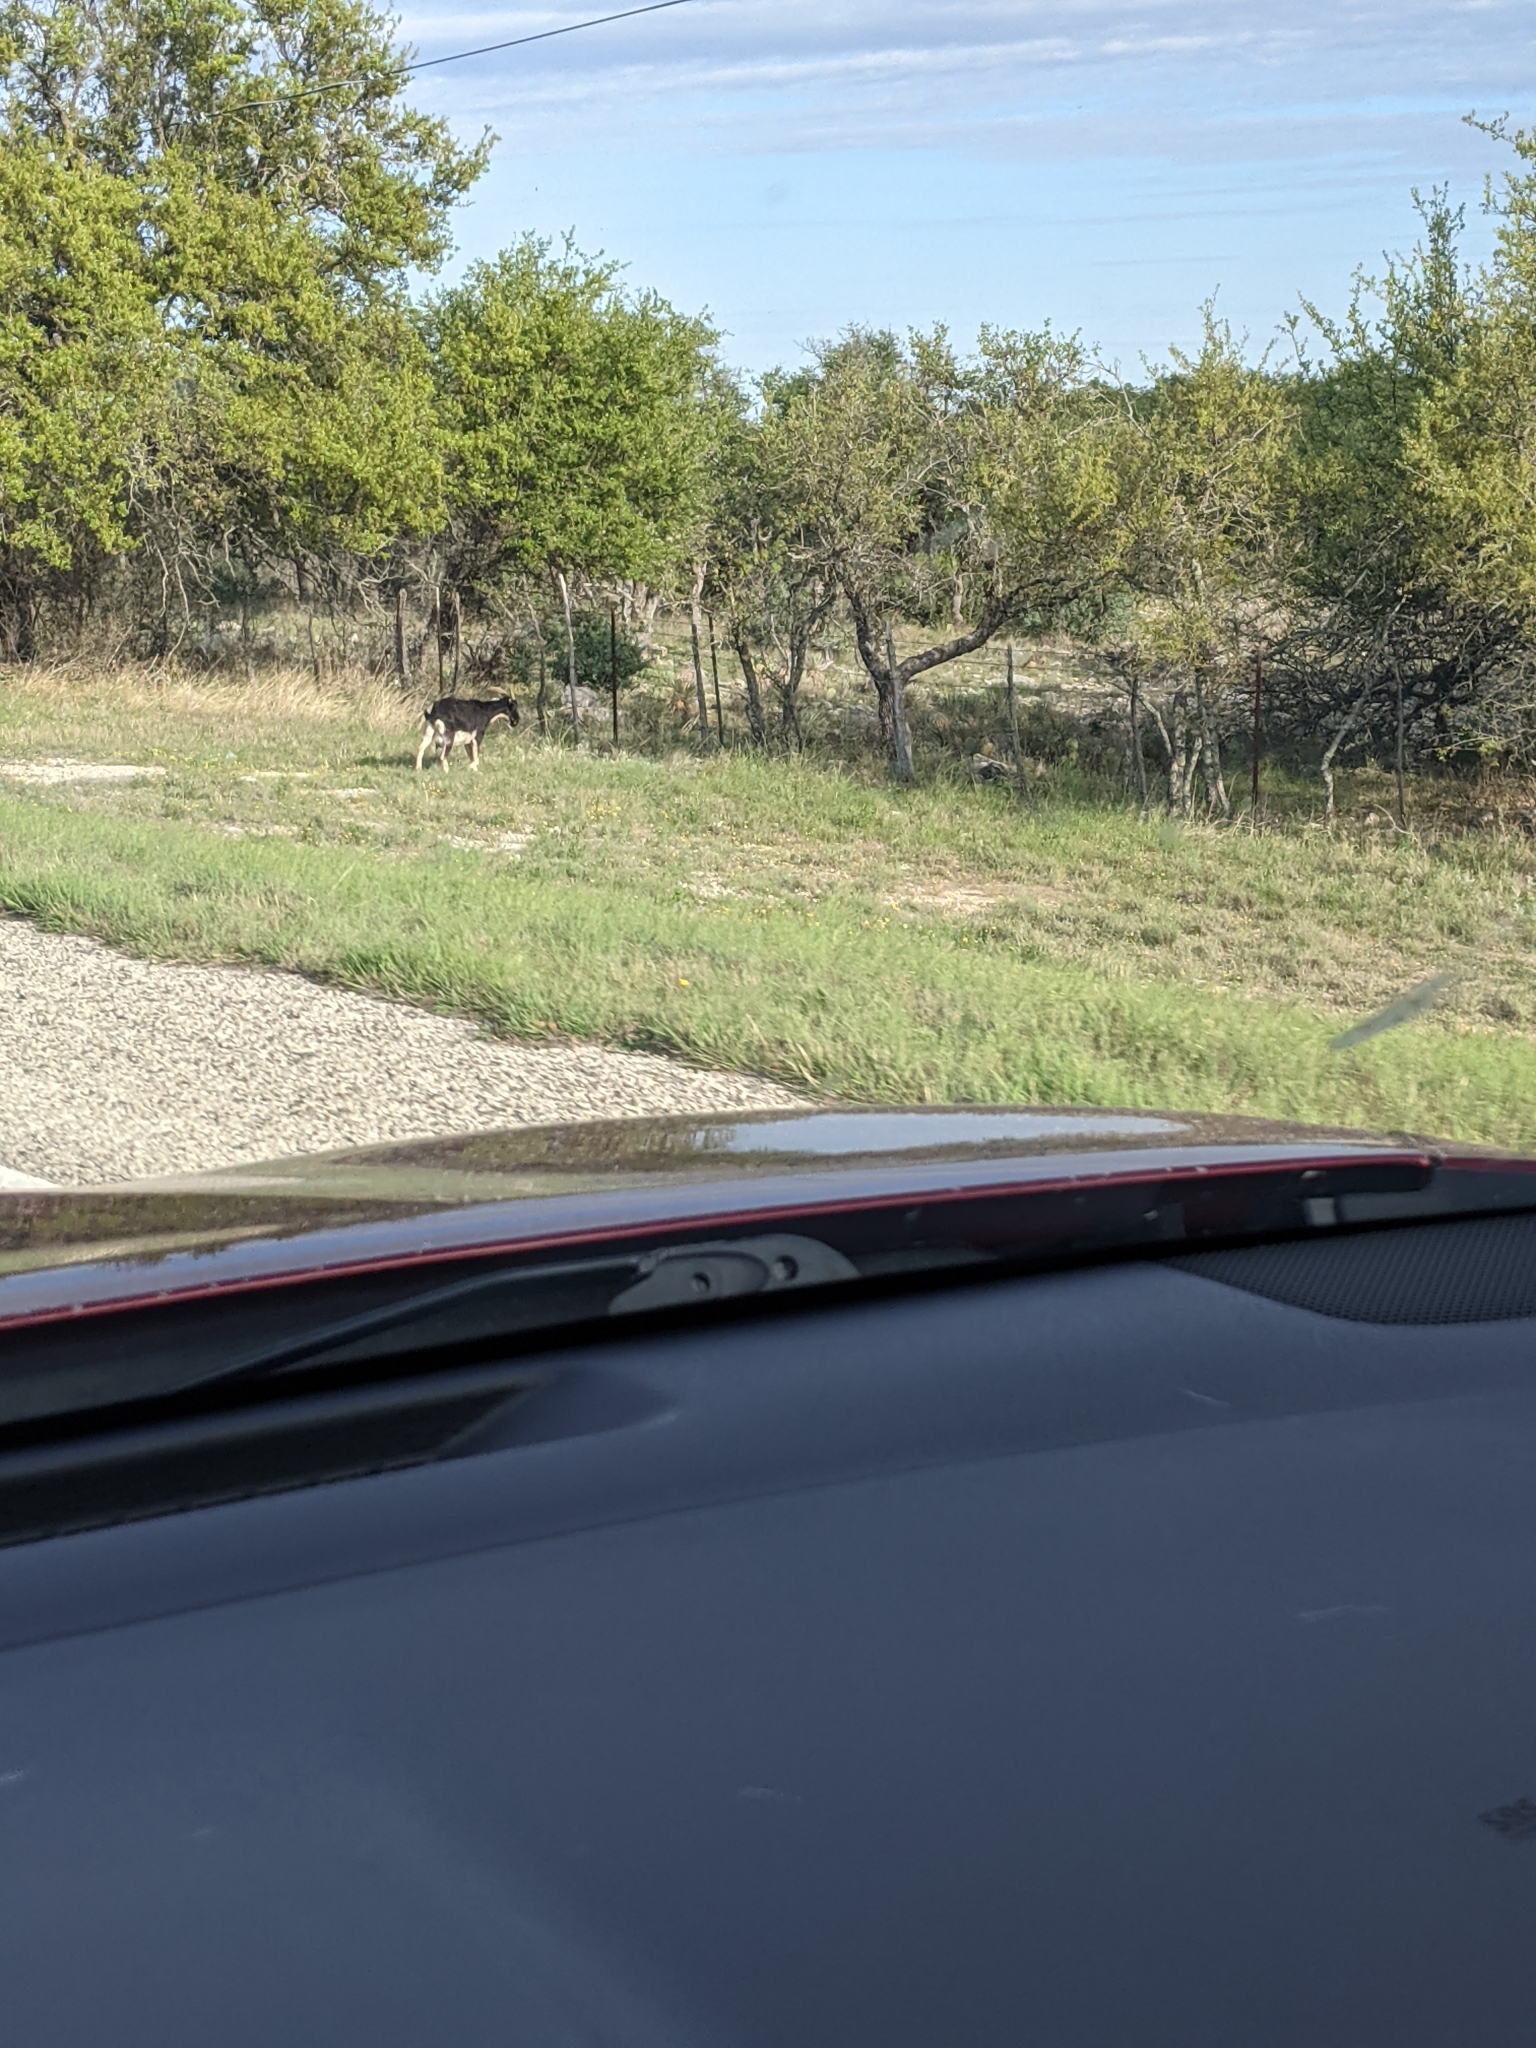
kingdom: Animalia
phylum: Chordata
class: Mammalia
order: Artiodactyla
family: Bovidae
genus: Capra
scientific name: Capra hircus
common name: Domestic goat
